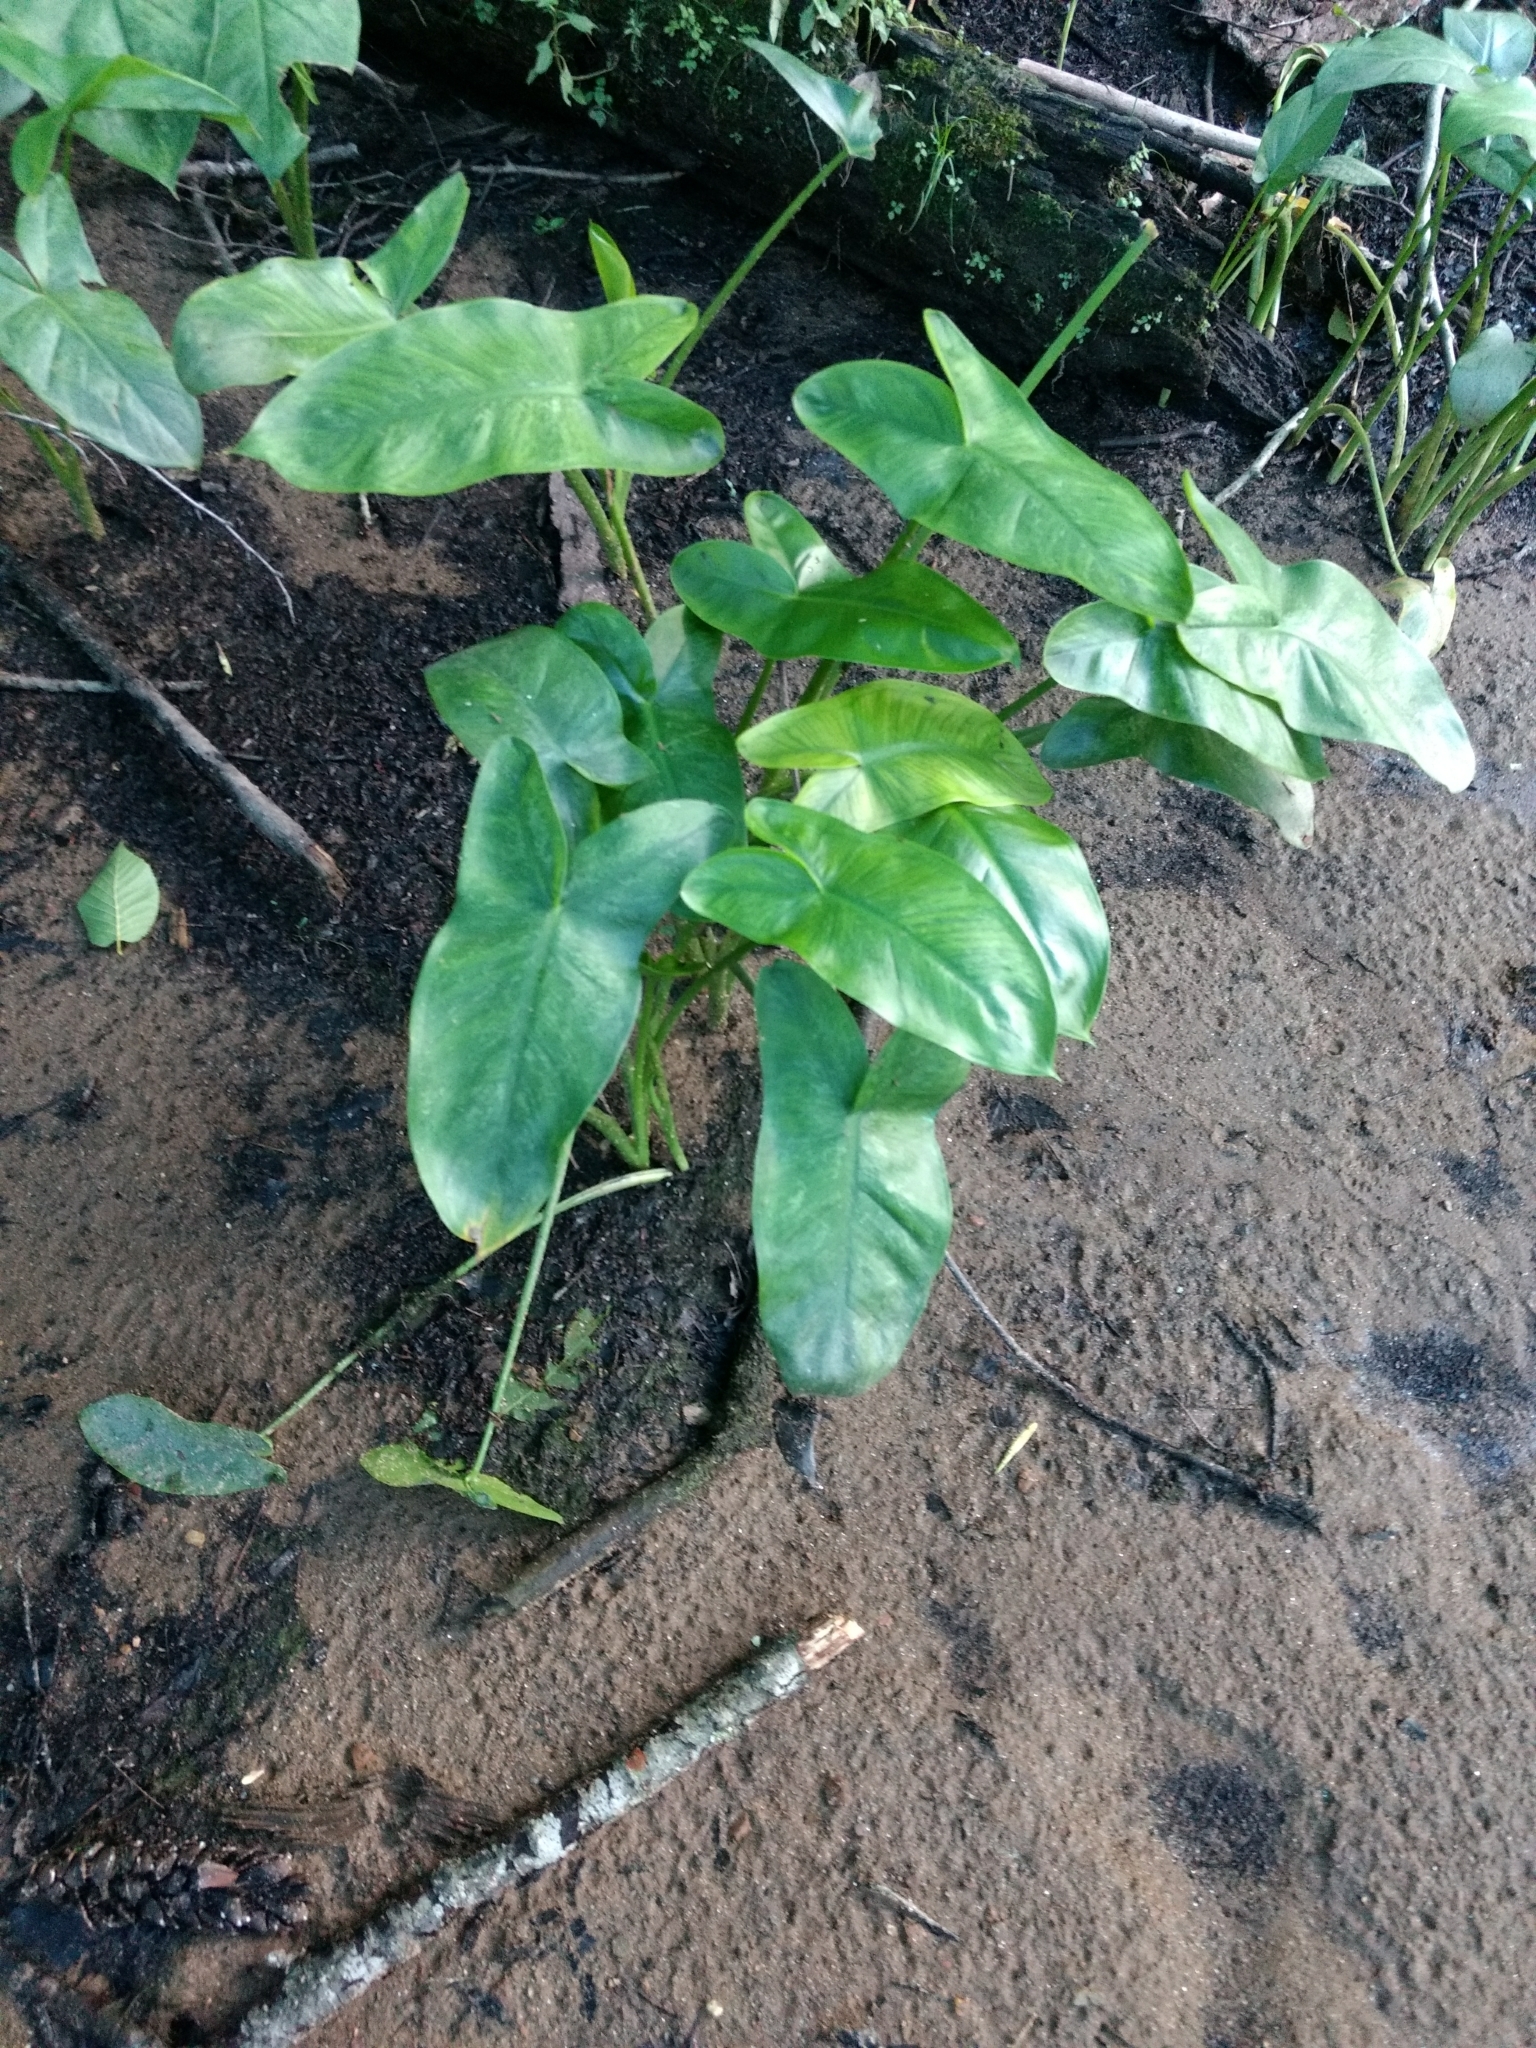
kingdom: Plantae
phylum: Tracheophyta
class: Liliopsida
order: Alismatales
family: Araceae
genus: Peltandra
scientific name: Peltandra virginica
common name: Arrow arum
